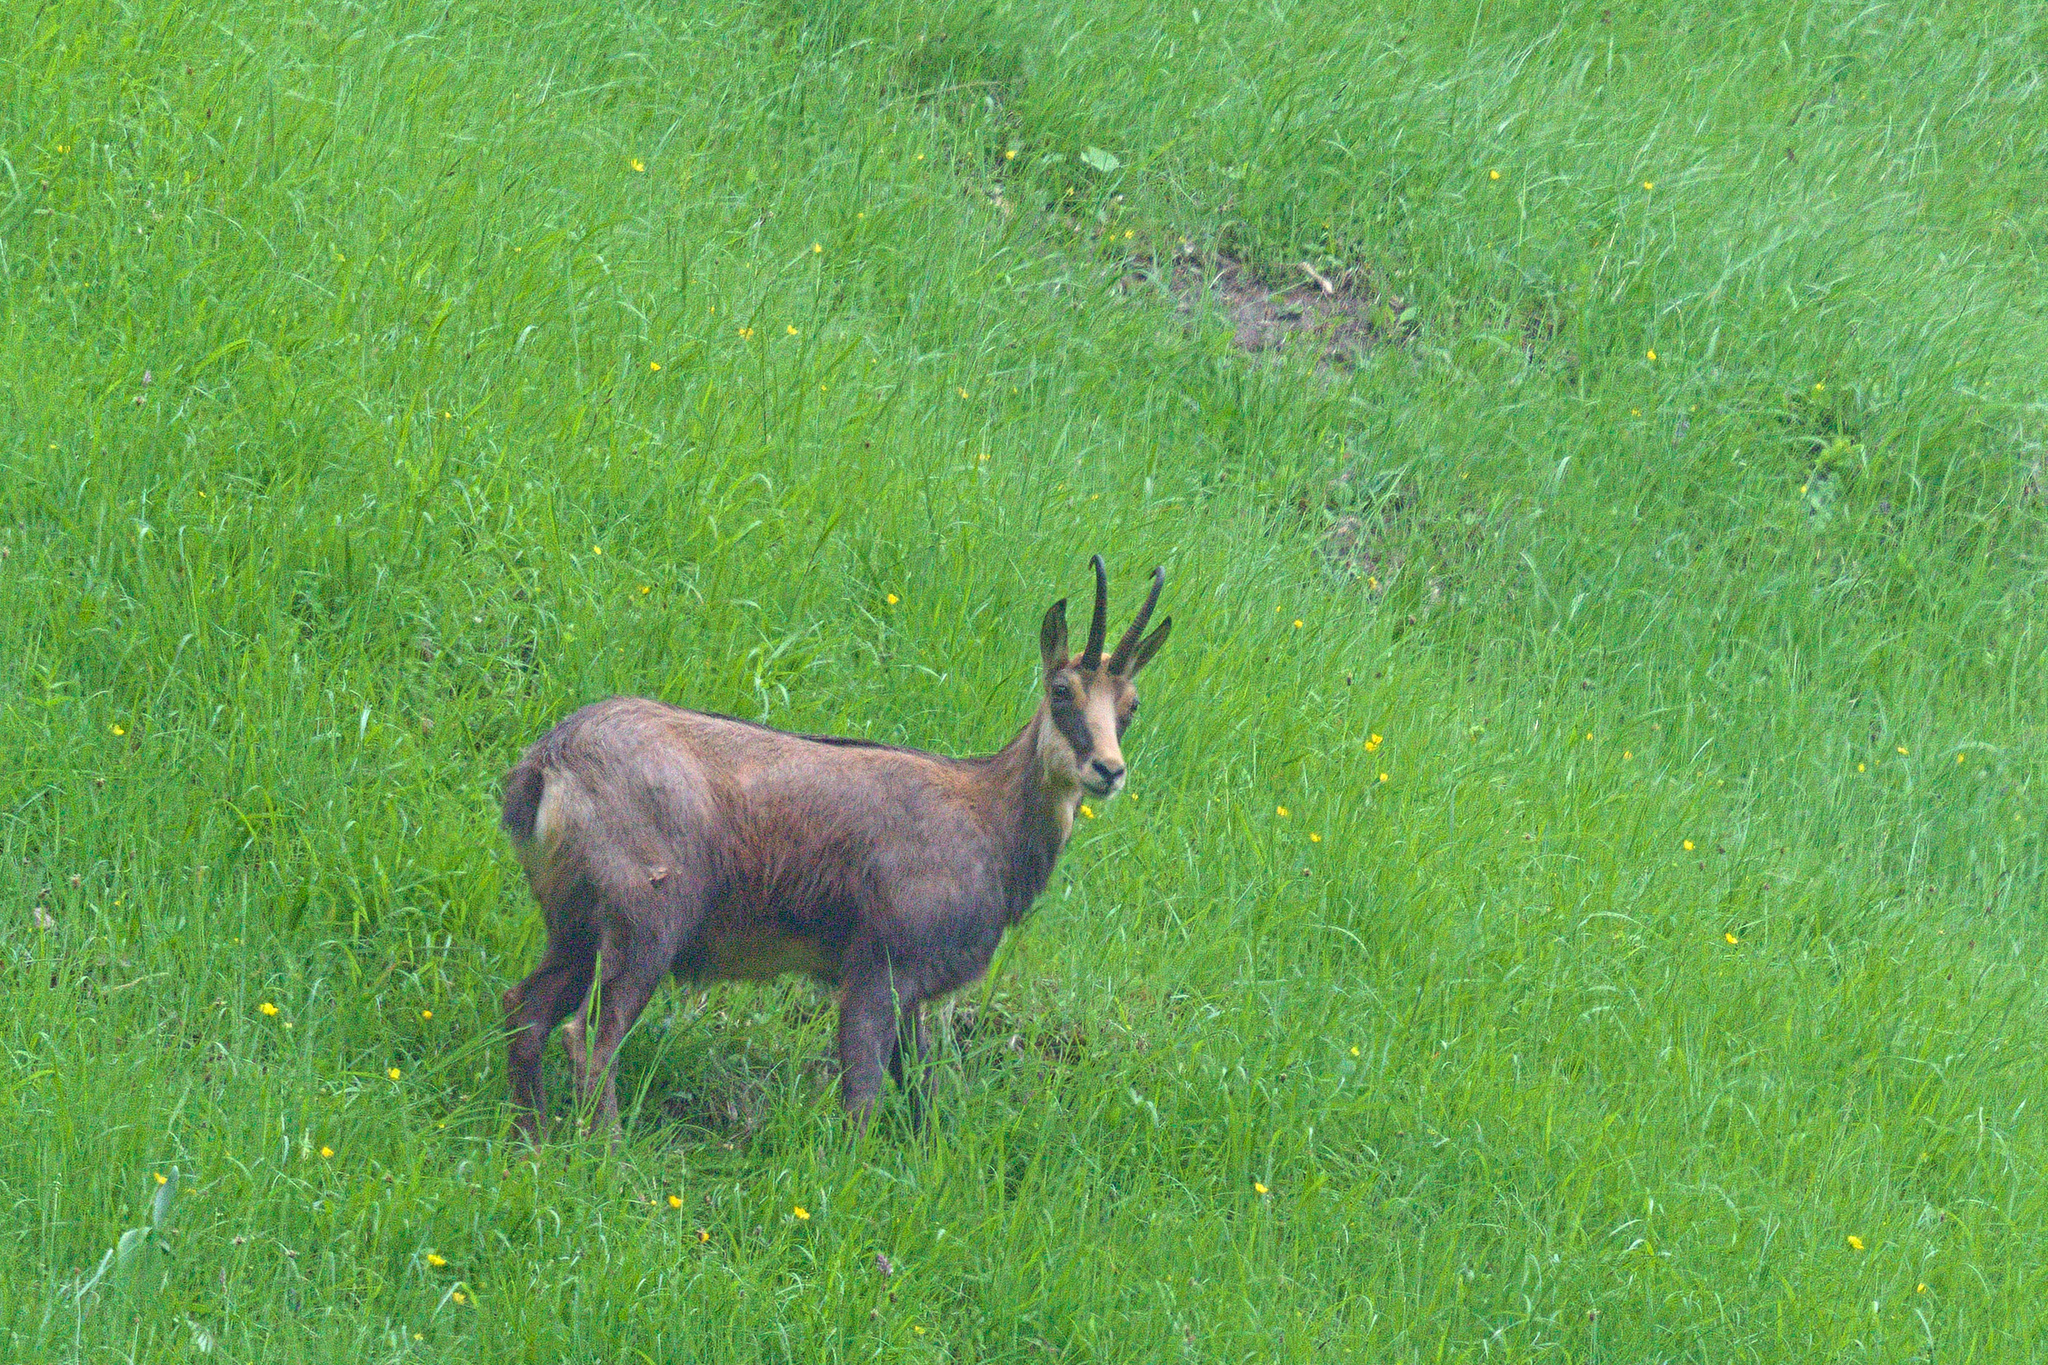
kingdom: Animalia
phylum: Chordata
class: Mammalia
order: Artiodactyla
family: Bovidae
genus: Rupicapra
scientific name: Rupicapra rupicapra
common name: Chamois
